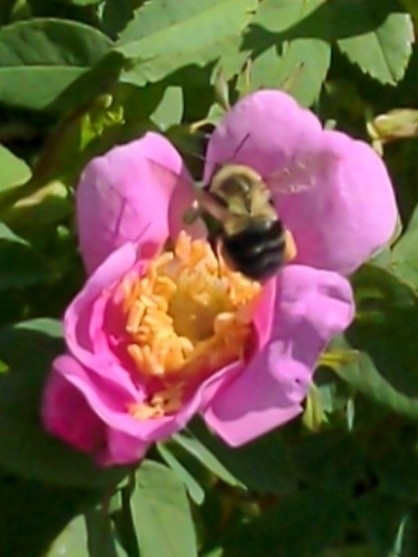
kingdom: Animalia
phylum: Arthropoda
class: Insecta
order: Hymenoptera
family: Apidae
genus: Bombus
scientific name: Bombus impatiens
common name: Common eastern bumble bee
